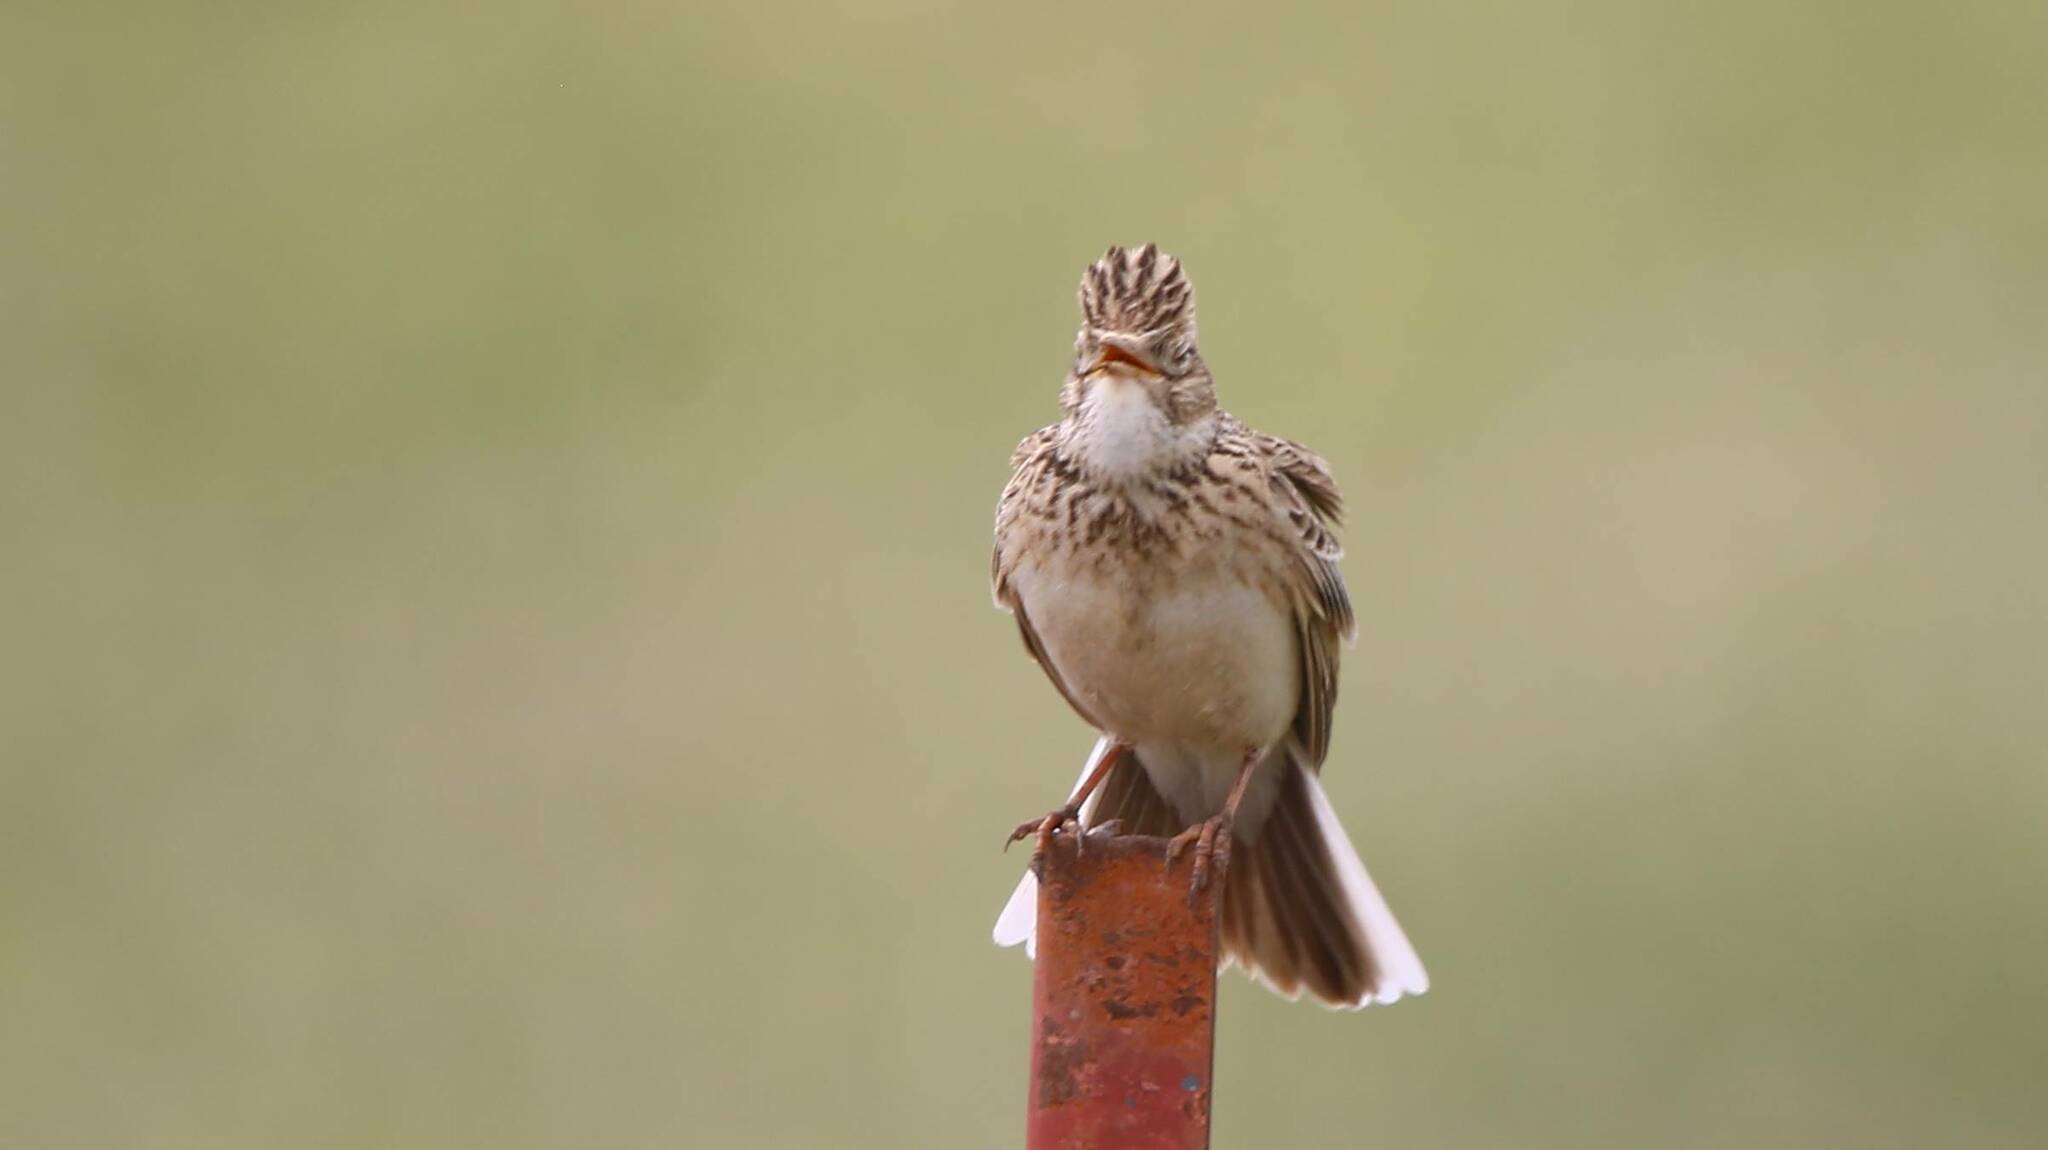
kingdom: Animalia
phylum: Chordata
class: Aves
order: Passeriformes
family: Alaudidae
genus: Alauda
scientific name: Alauda arvensis
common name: Eurasian skylark
